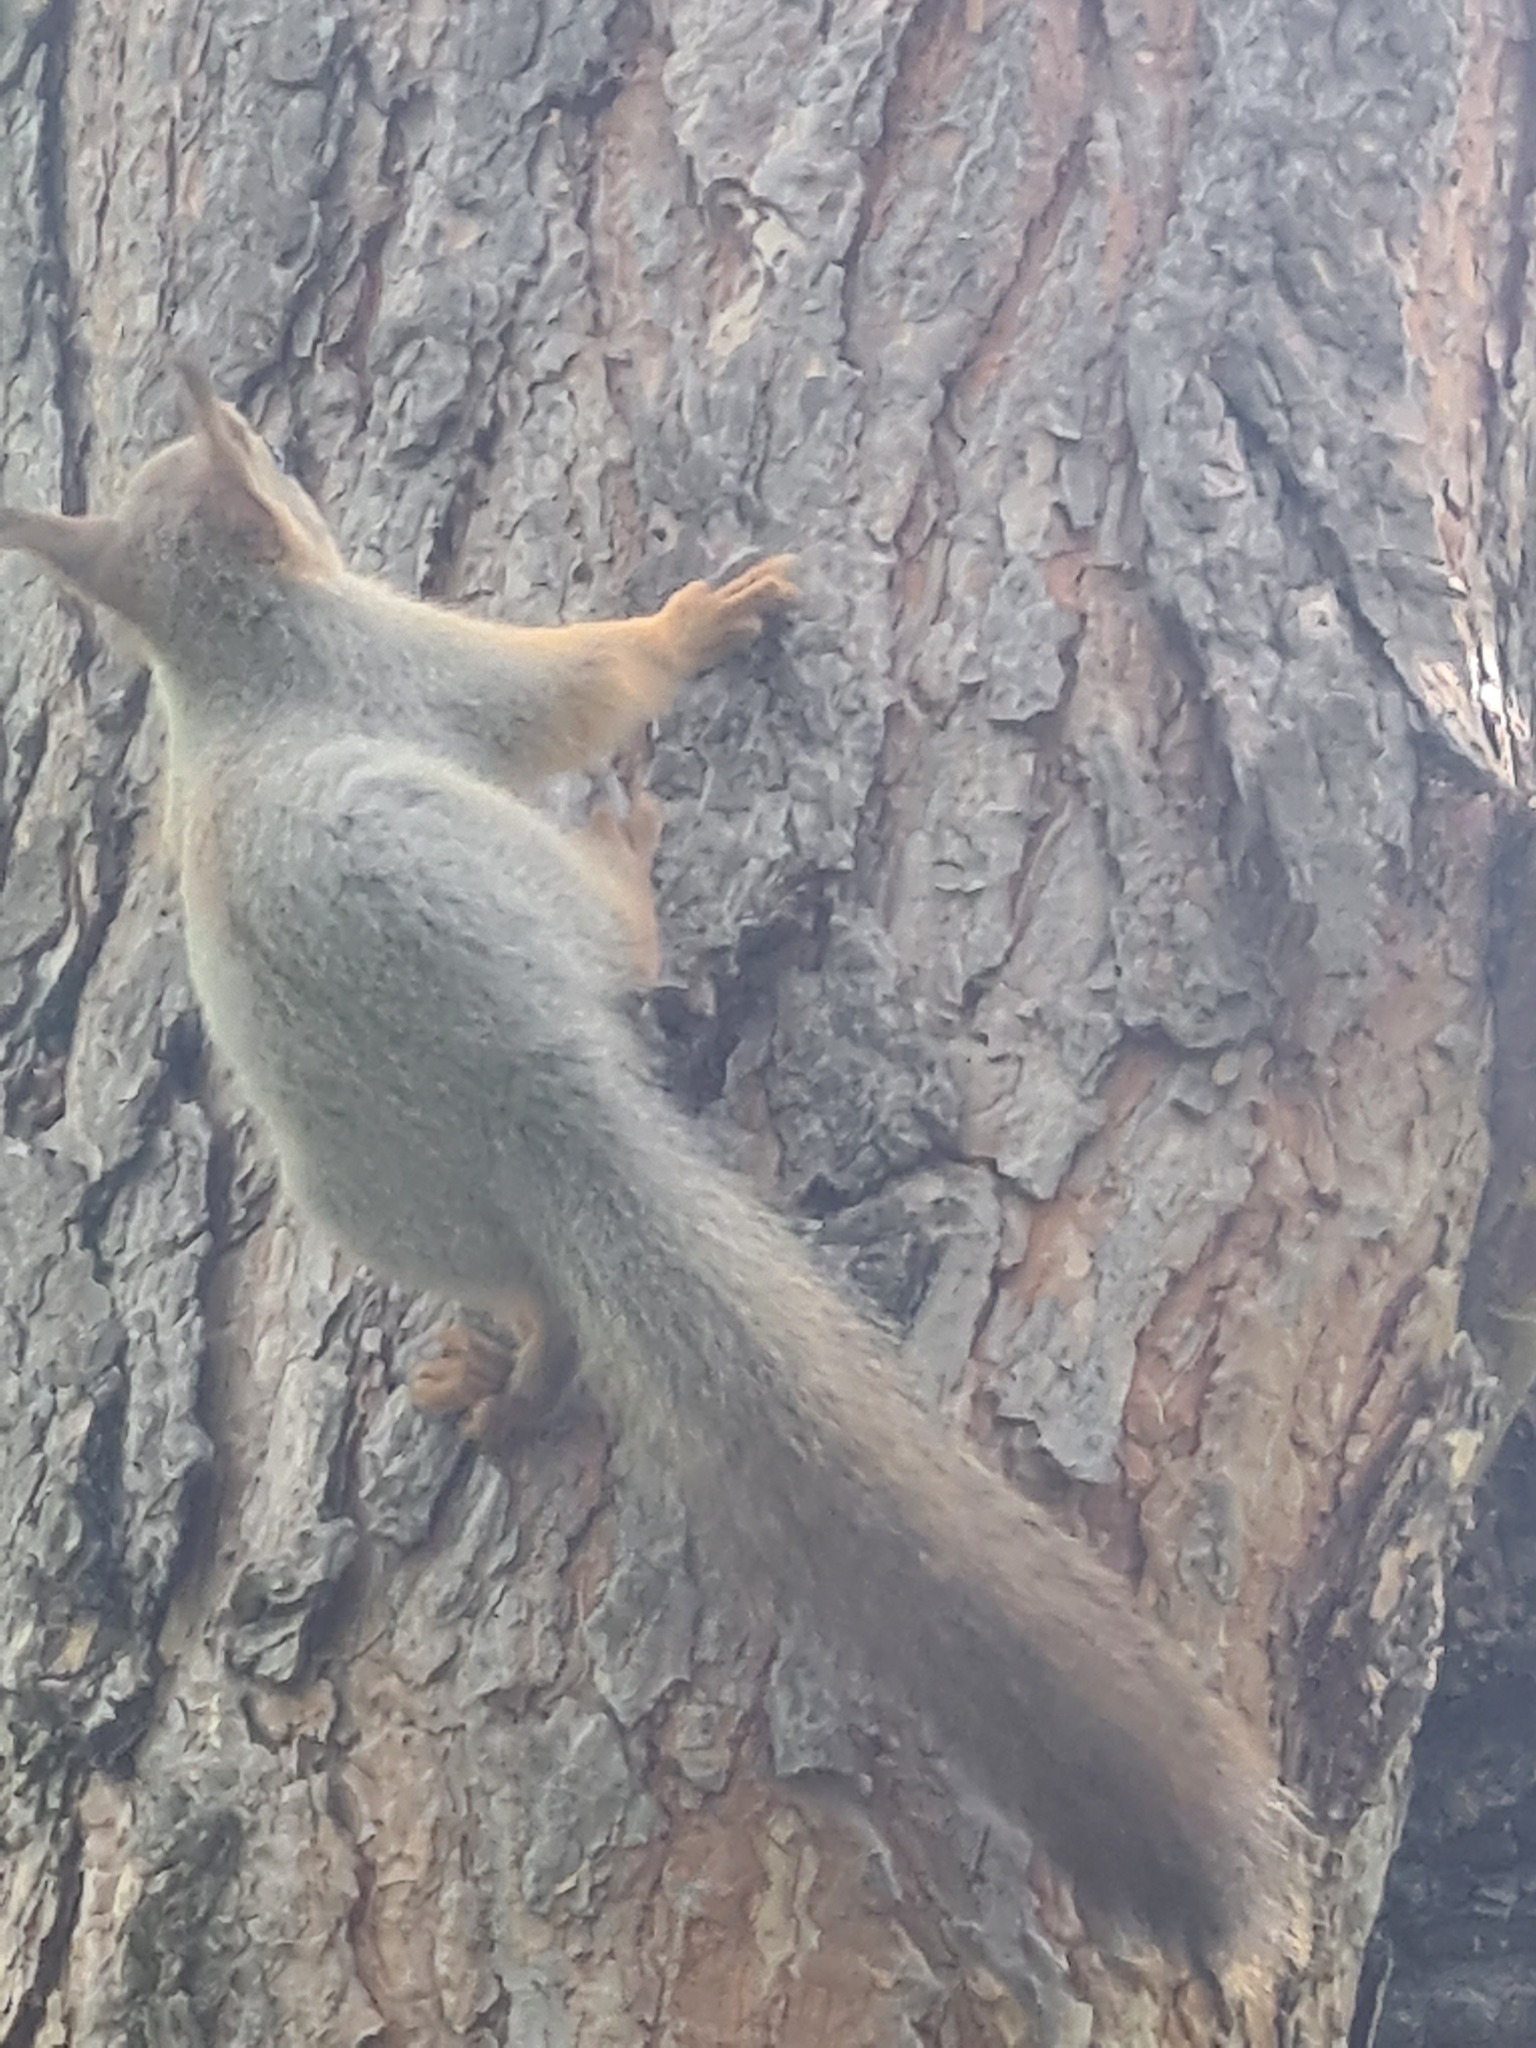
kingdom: Animalia
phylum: Chordata
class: Mammalia
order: Rodentia
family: Sciuridae
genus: Sciurus
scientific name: Sciurus vulgaris
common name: Eurasian red squirrel
